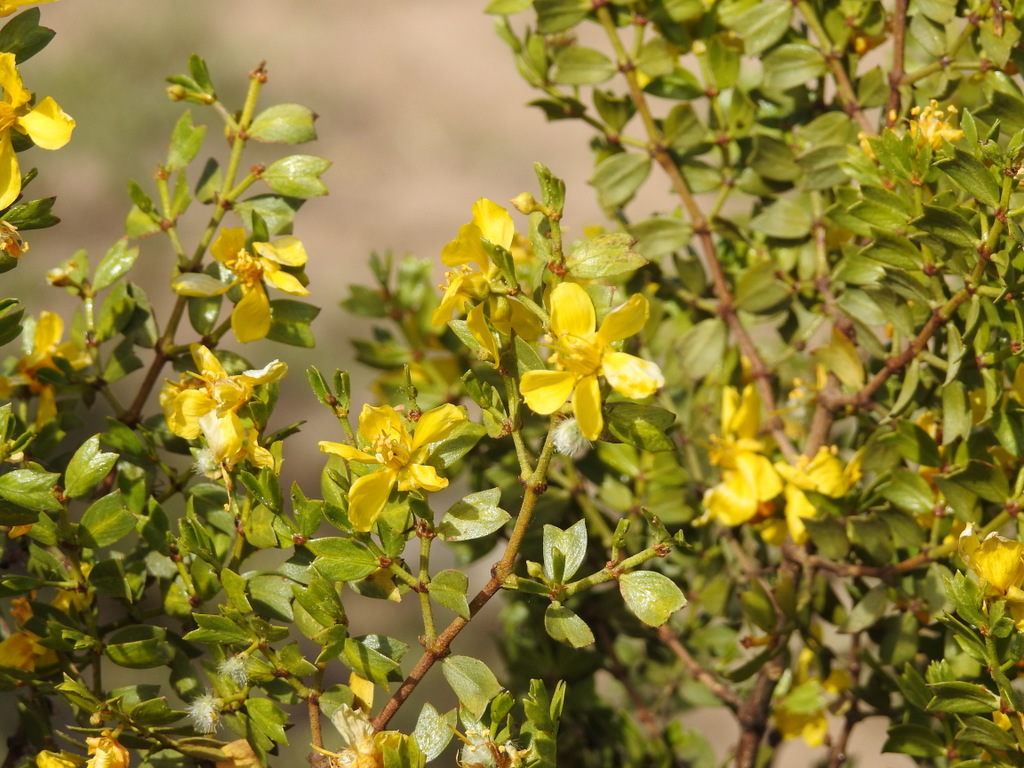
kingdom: Plantae
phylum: Tracheophyta
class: Magnoliopsida
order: Zygophyllales
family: Zygophyllaceae
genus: Larrea
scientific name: Larrea cuneifolia
